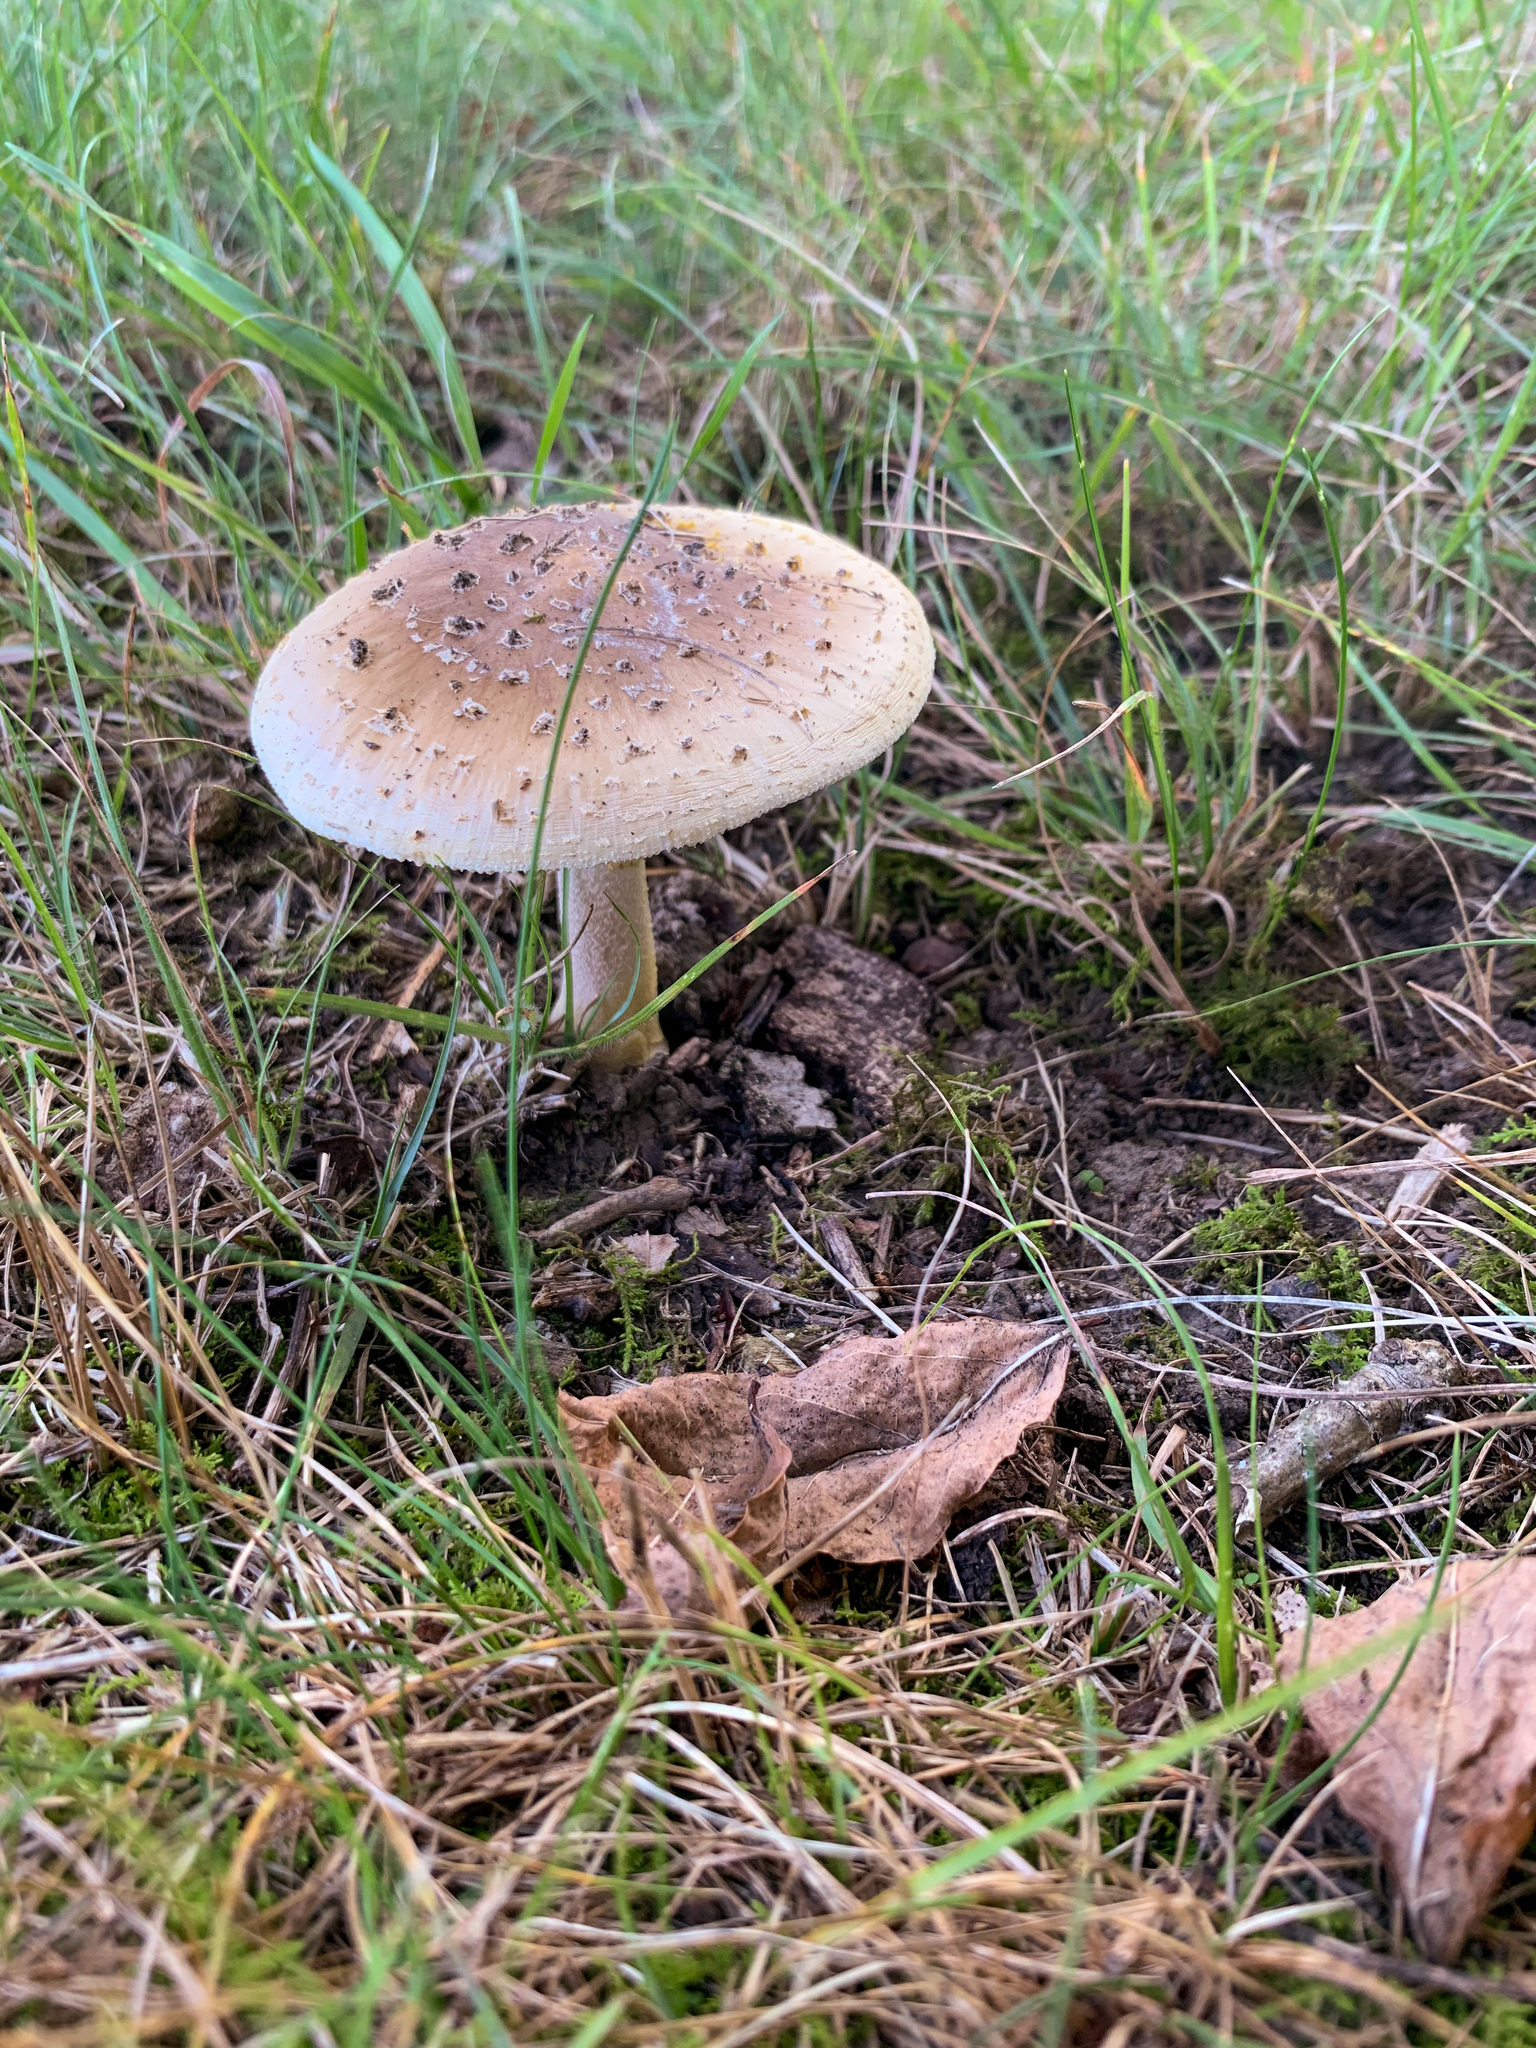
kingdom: Fungi
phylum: Basidiomycota
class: Agaricomycetes
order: Agaricales
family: Amanitaceae
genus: Amanita
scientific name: Amanita flavorubens
